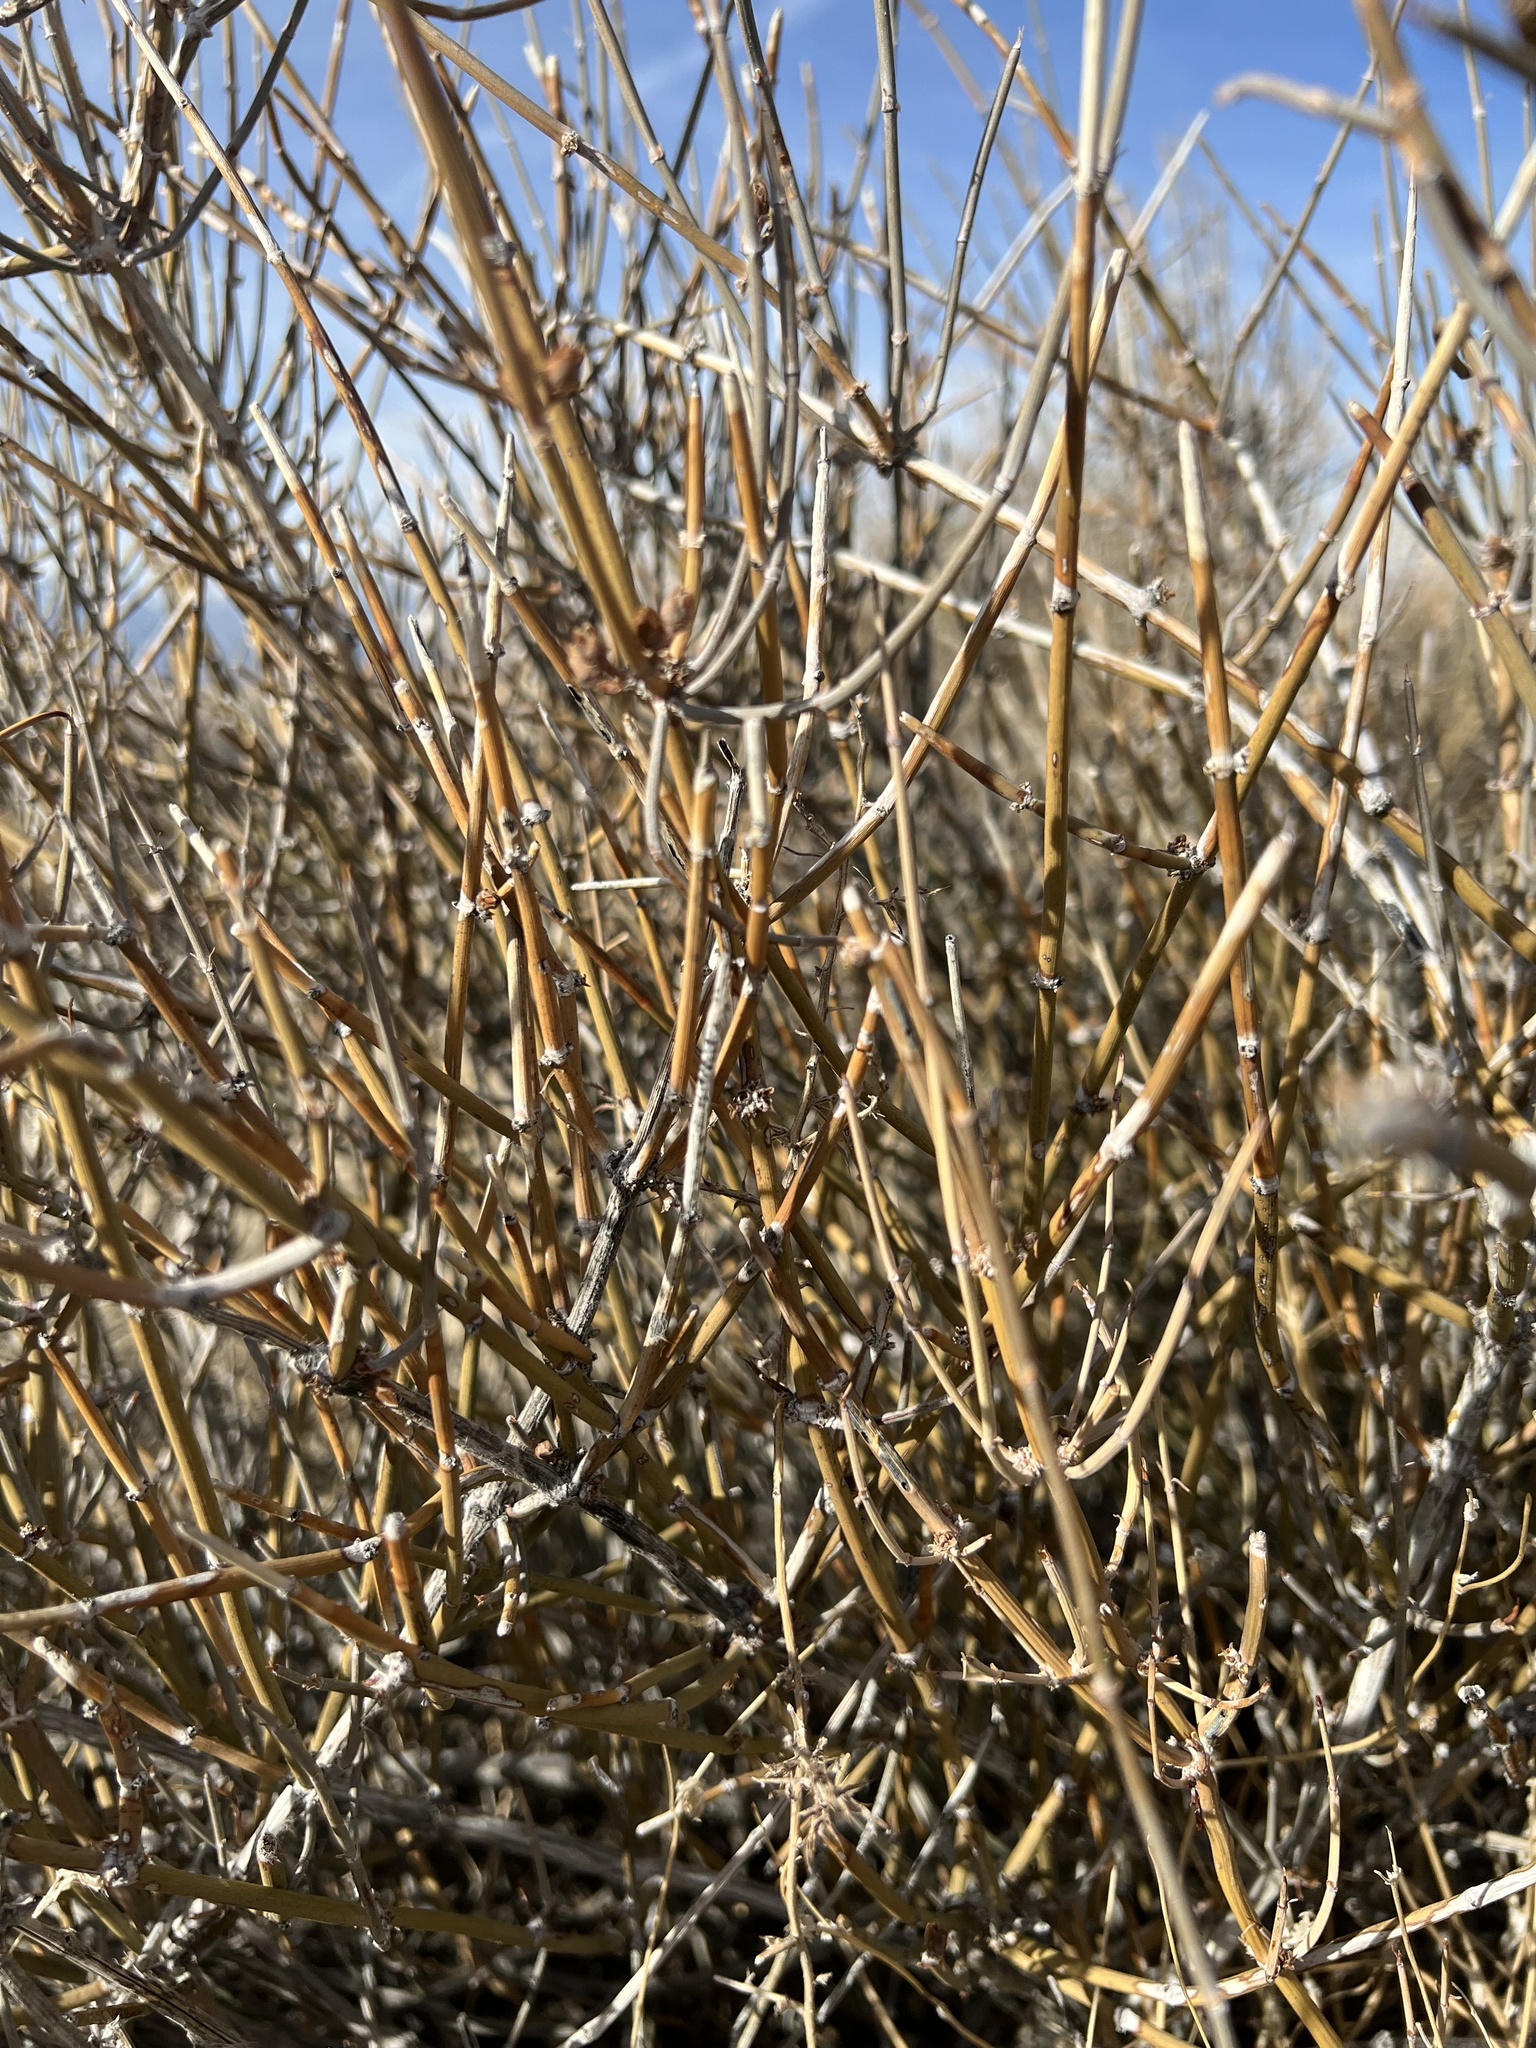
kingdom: Plantae
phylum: Tracheophyta
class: Gnetopsida
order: Ephedrales
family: Ephedraceae
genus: Ephedra
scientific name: Ephedra nevadensis
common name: Gray ephedra
